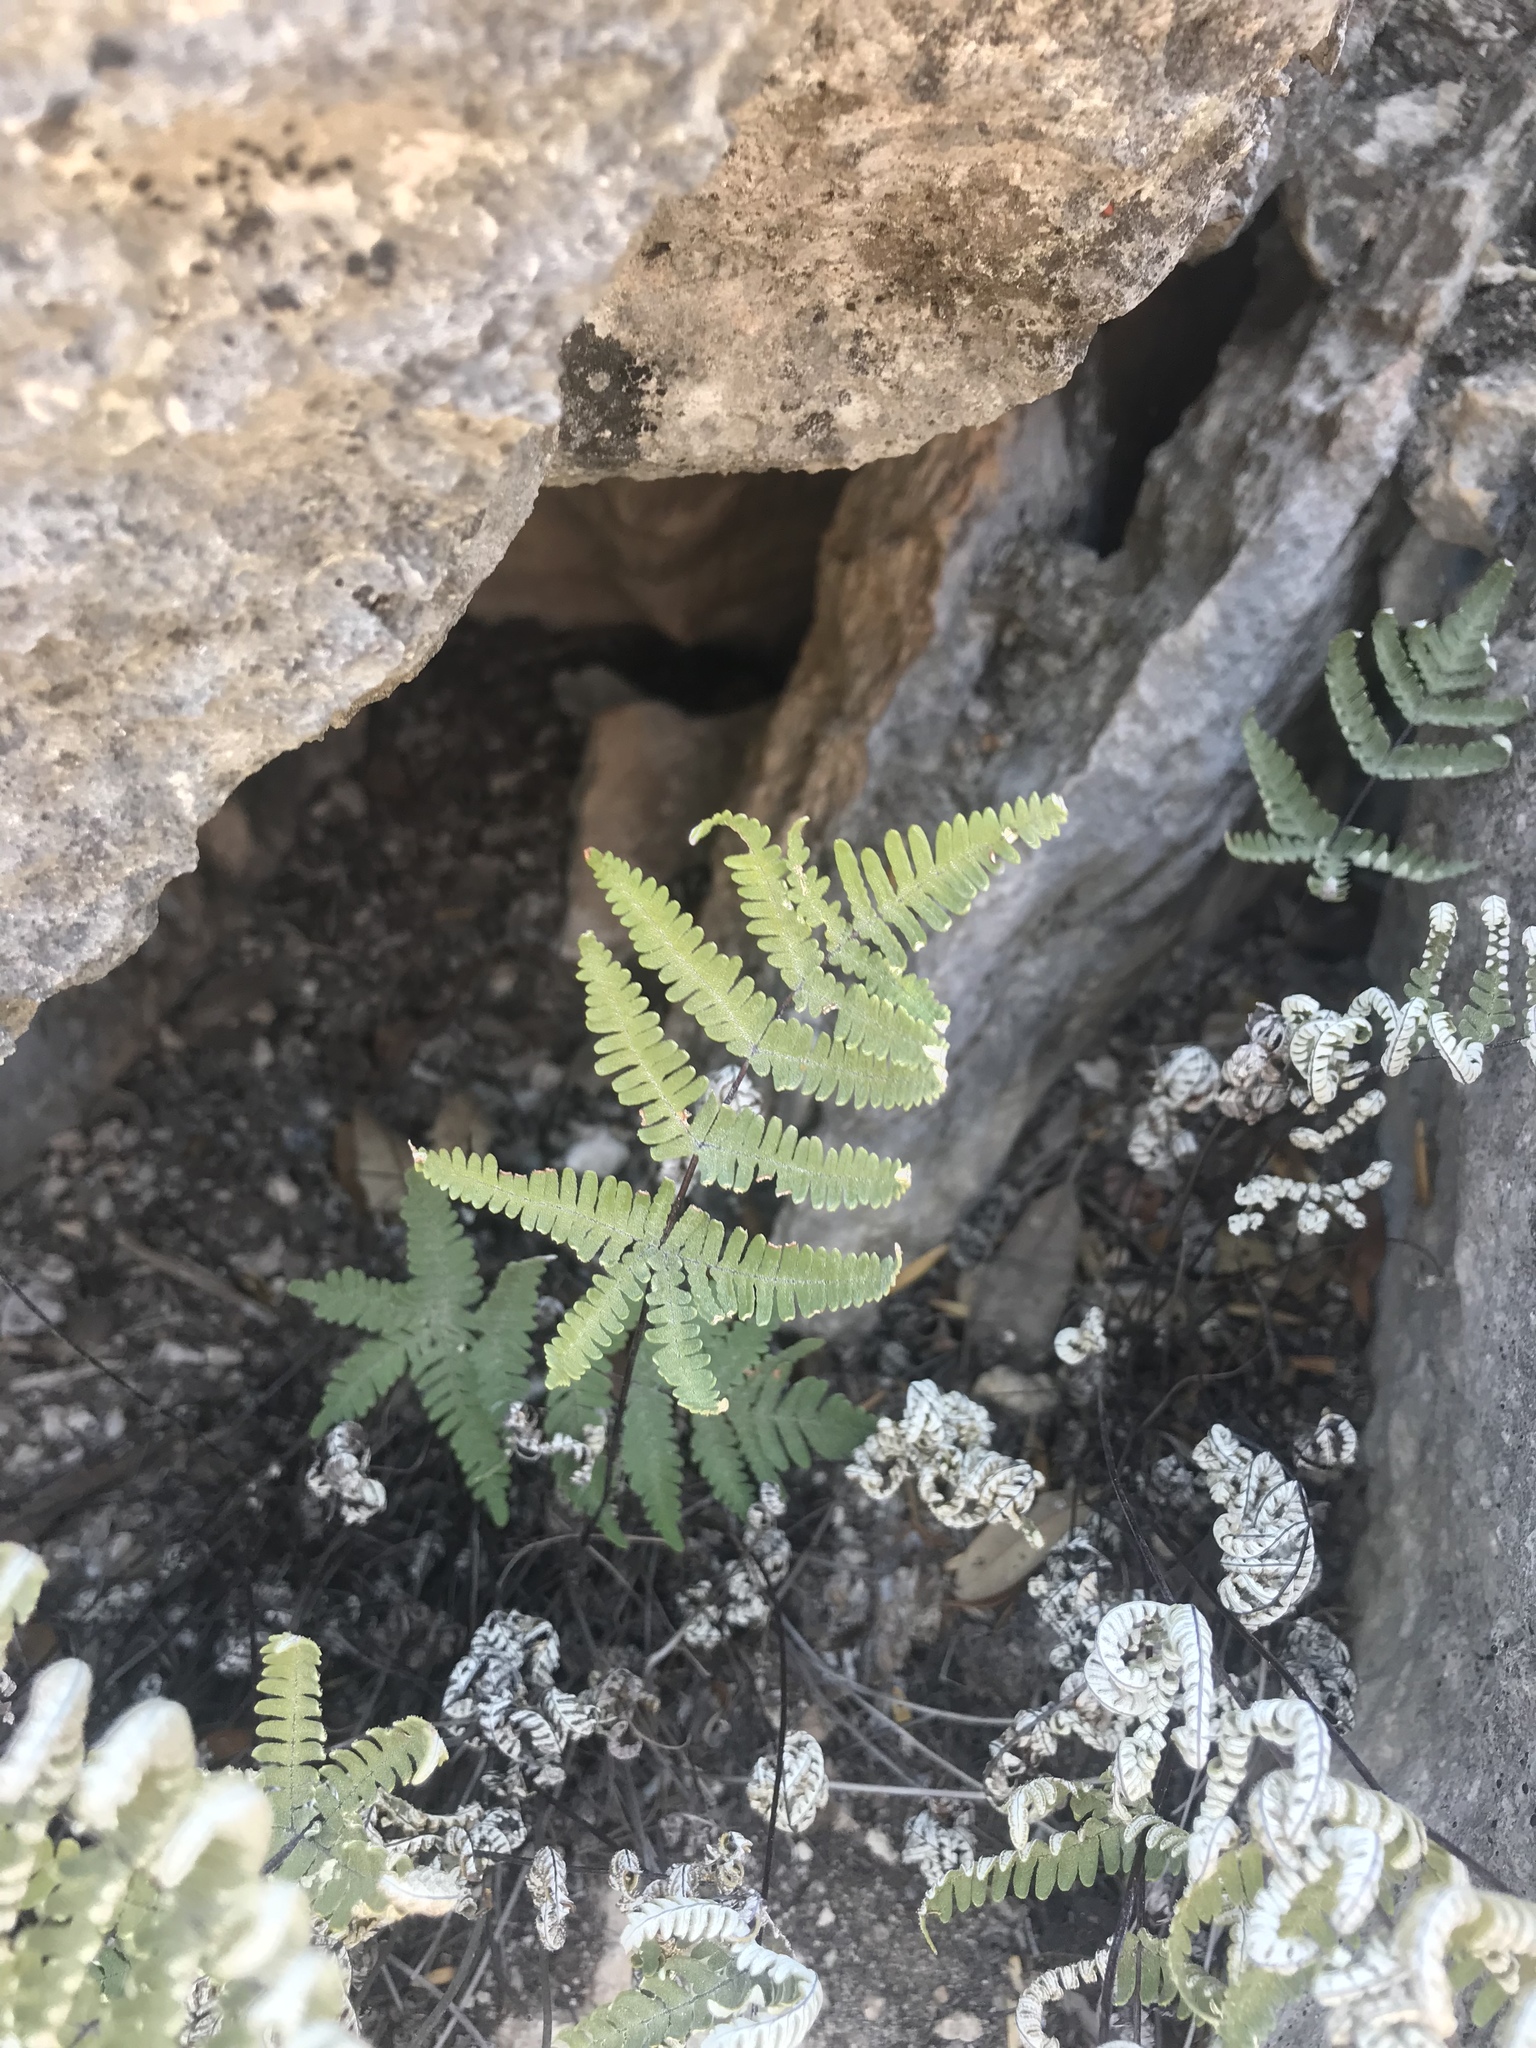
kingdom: Plantae
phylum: Tracheophyta
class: Polypodiopsida
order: Polypodiales
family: Pteridaceae
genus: Notholaena
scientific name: Notholaena candida
